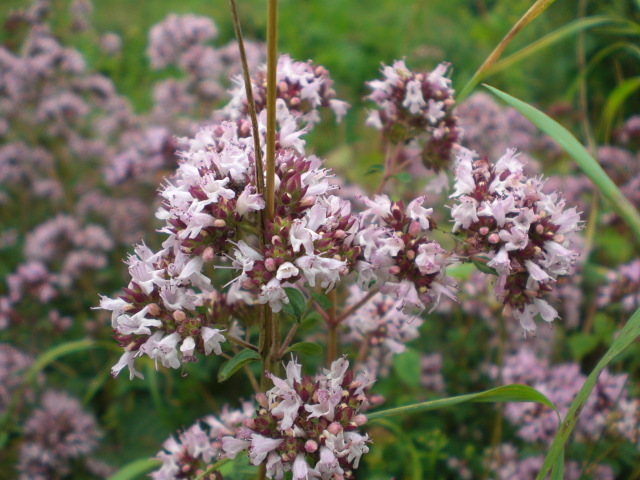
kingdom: Plantae
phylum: Tracheophyta
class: Magnoliopsida
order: Lamiales
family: Lamiaceae
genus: Origanum
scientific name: Origanum vulgare
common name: Wild marjoram
